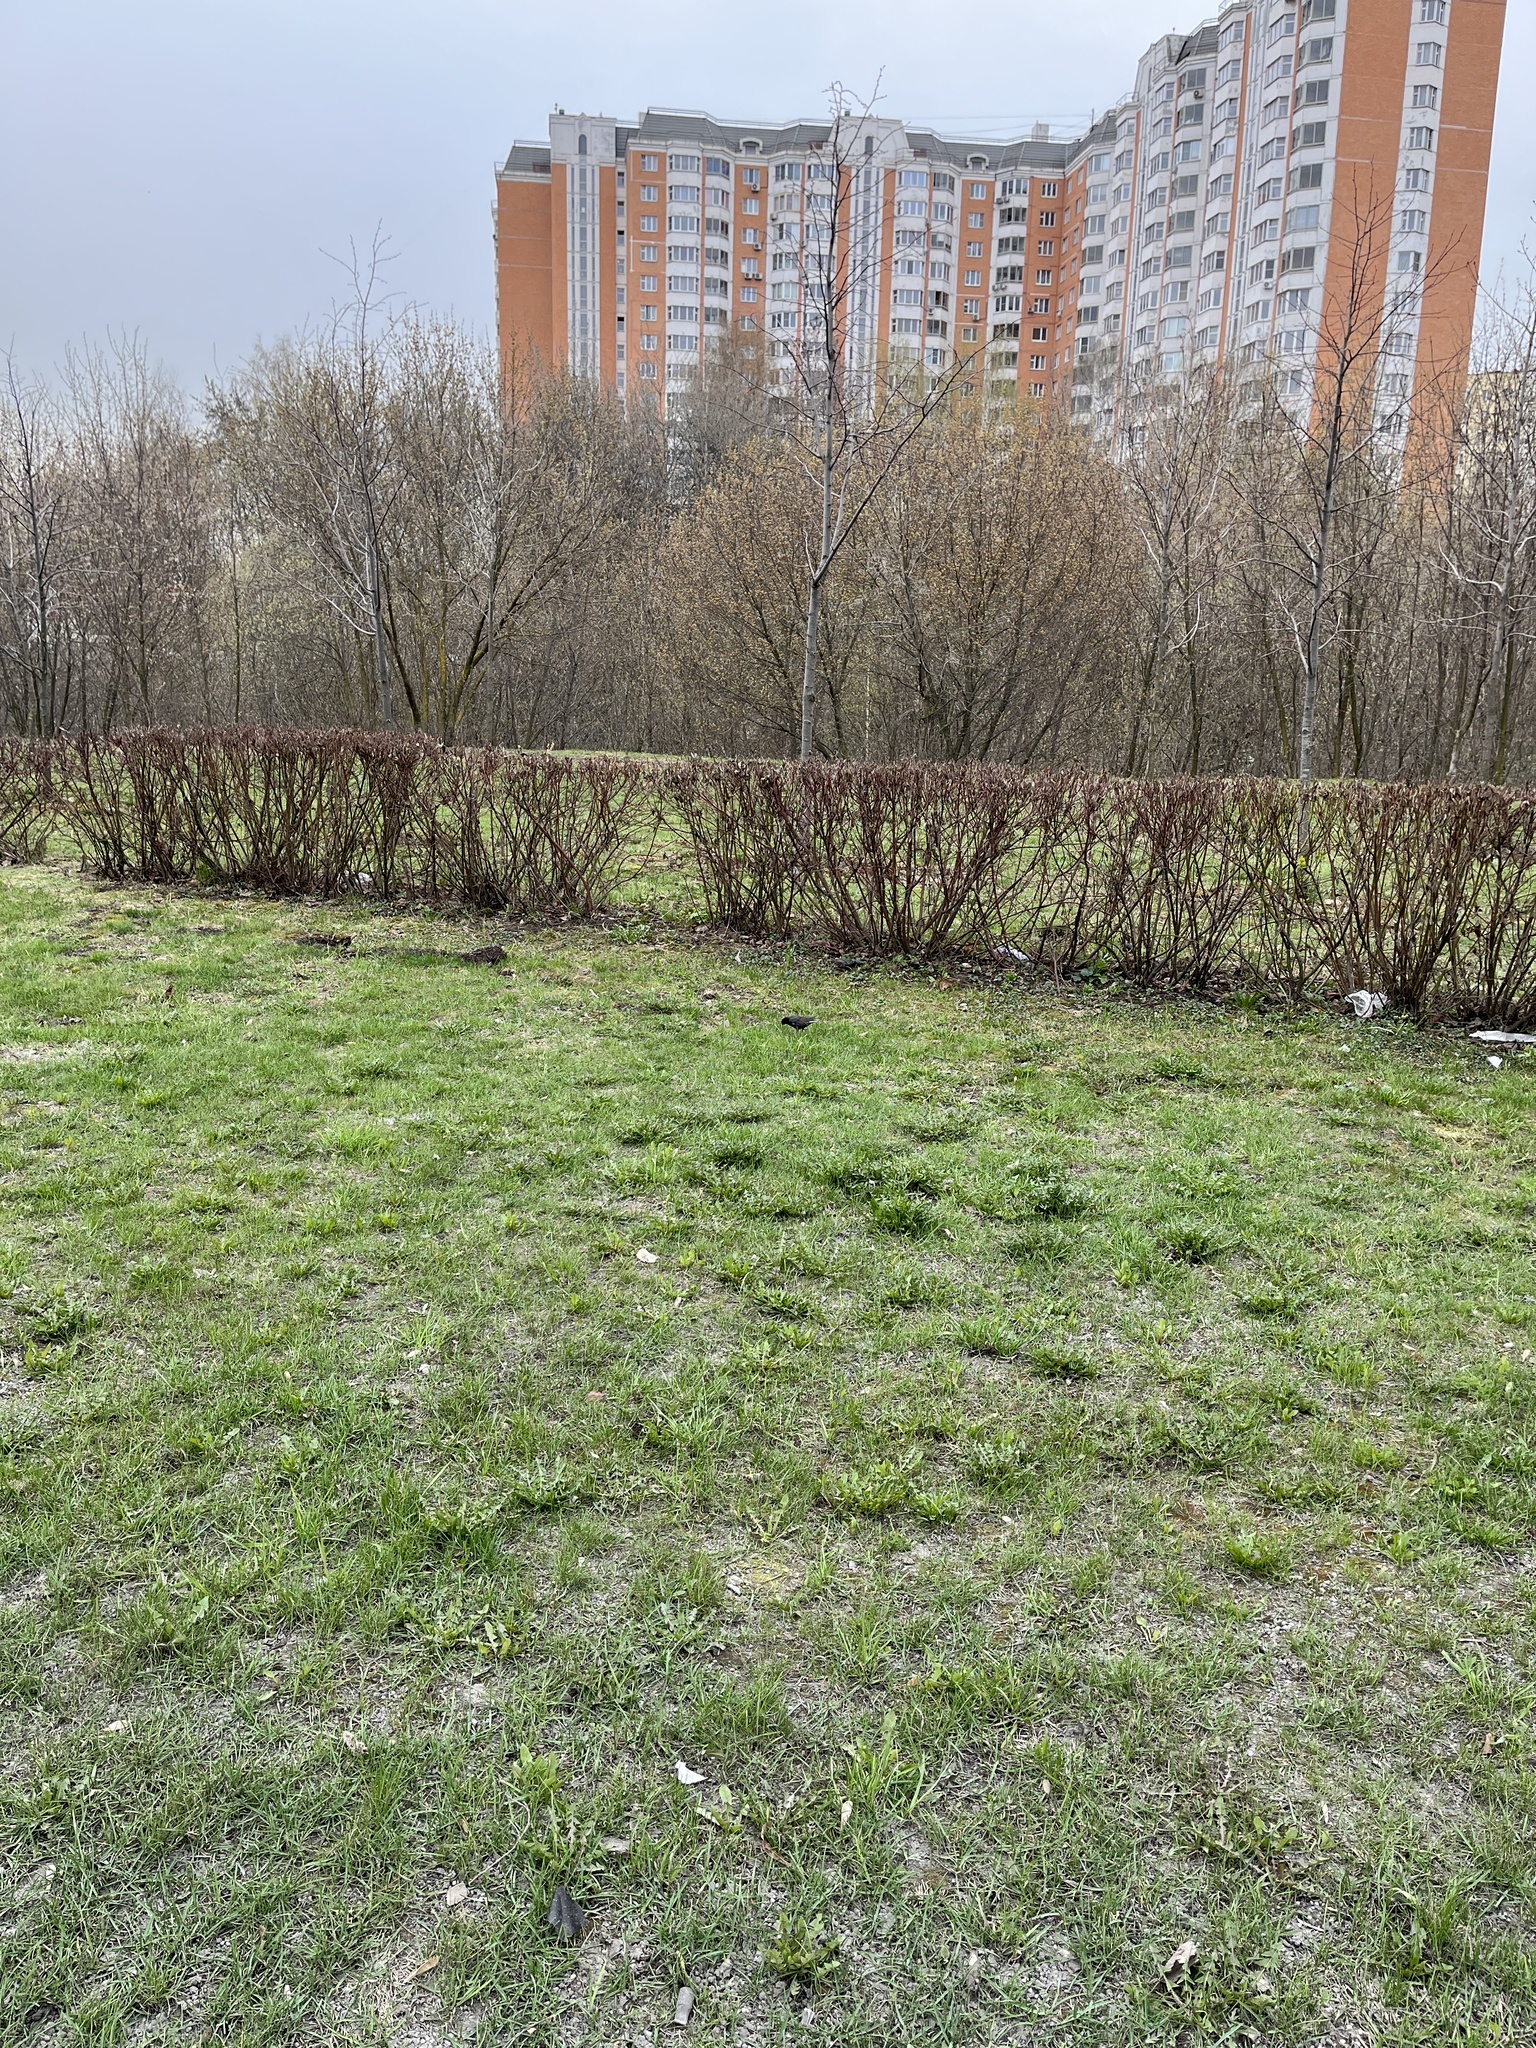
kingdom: Animalia
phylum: Chordata
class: Aves
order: Passeriformes
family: Sturnidae
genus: Sturnus
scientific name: Sturnus vulgaris
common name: Common starling
